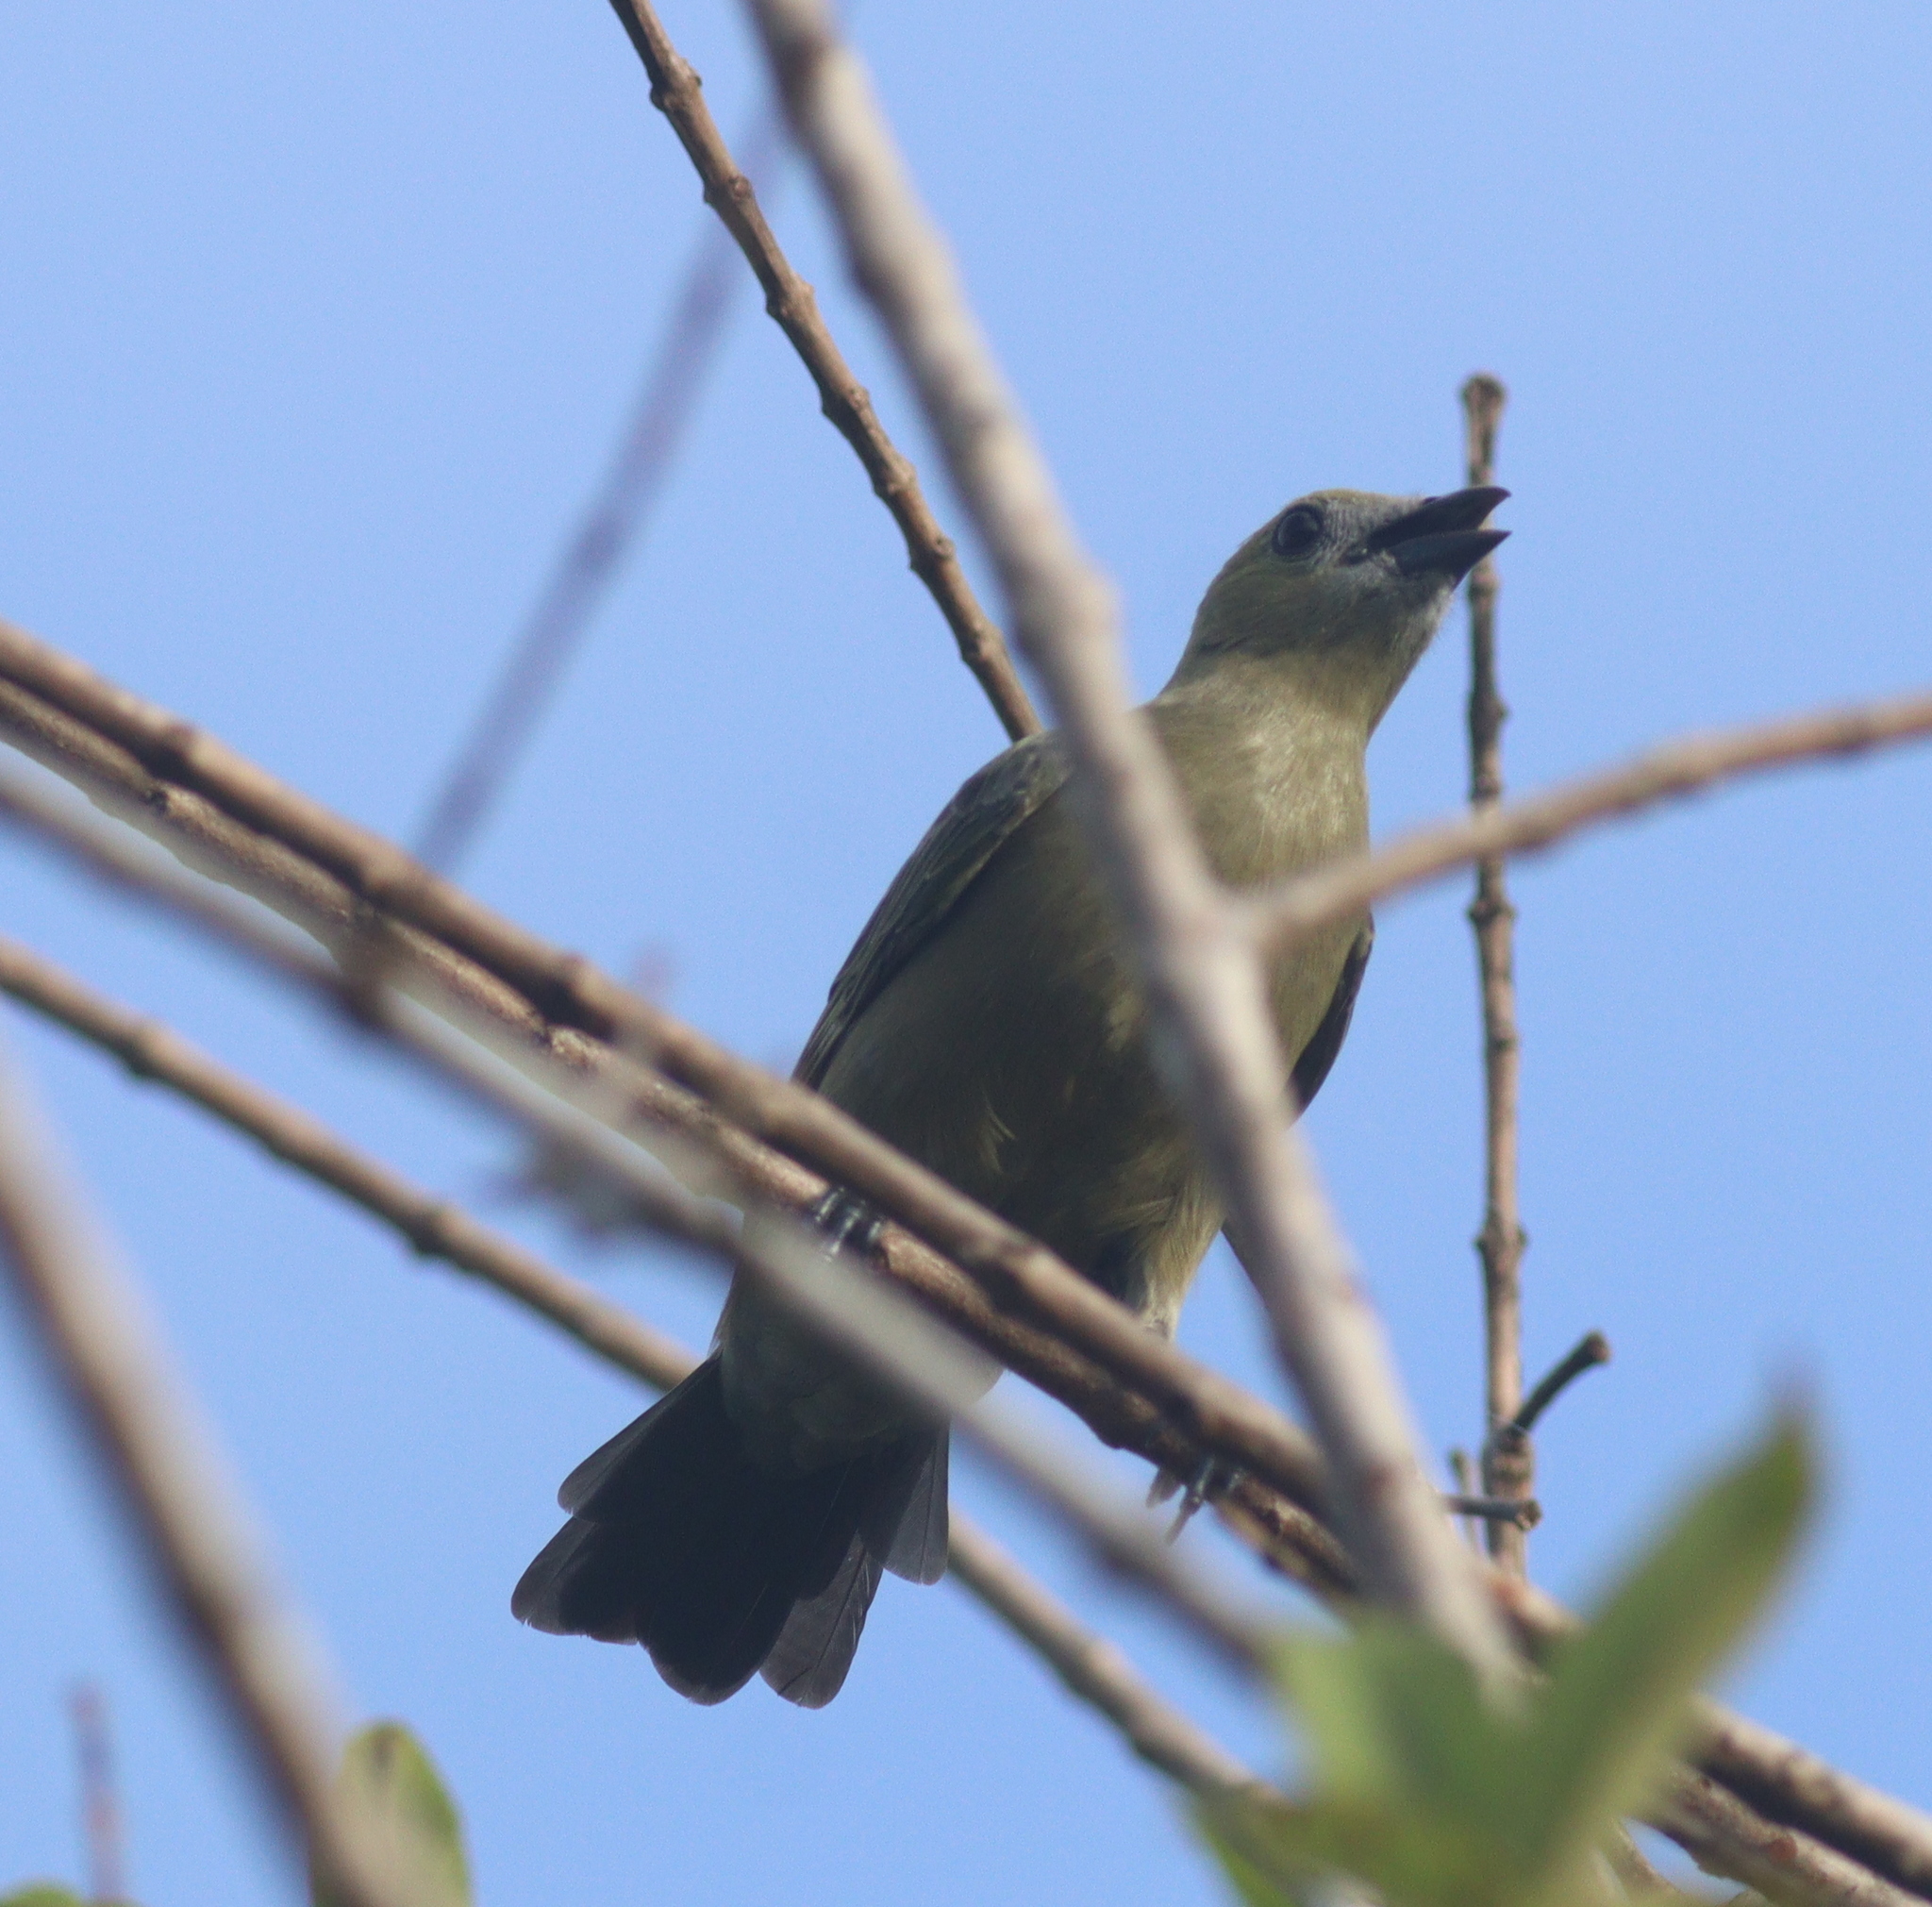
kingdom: Animalia
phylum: Chordata
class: Aves
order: Passeriformes
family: Thraupidae
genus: Thraupis
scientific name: Thraupis palmarum
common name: Palm tanager
